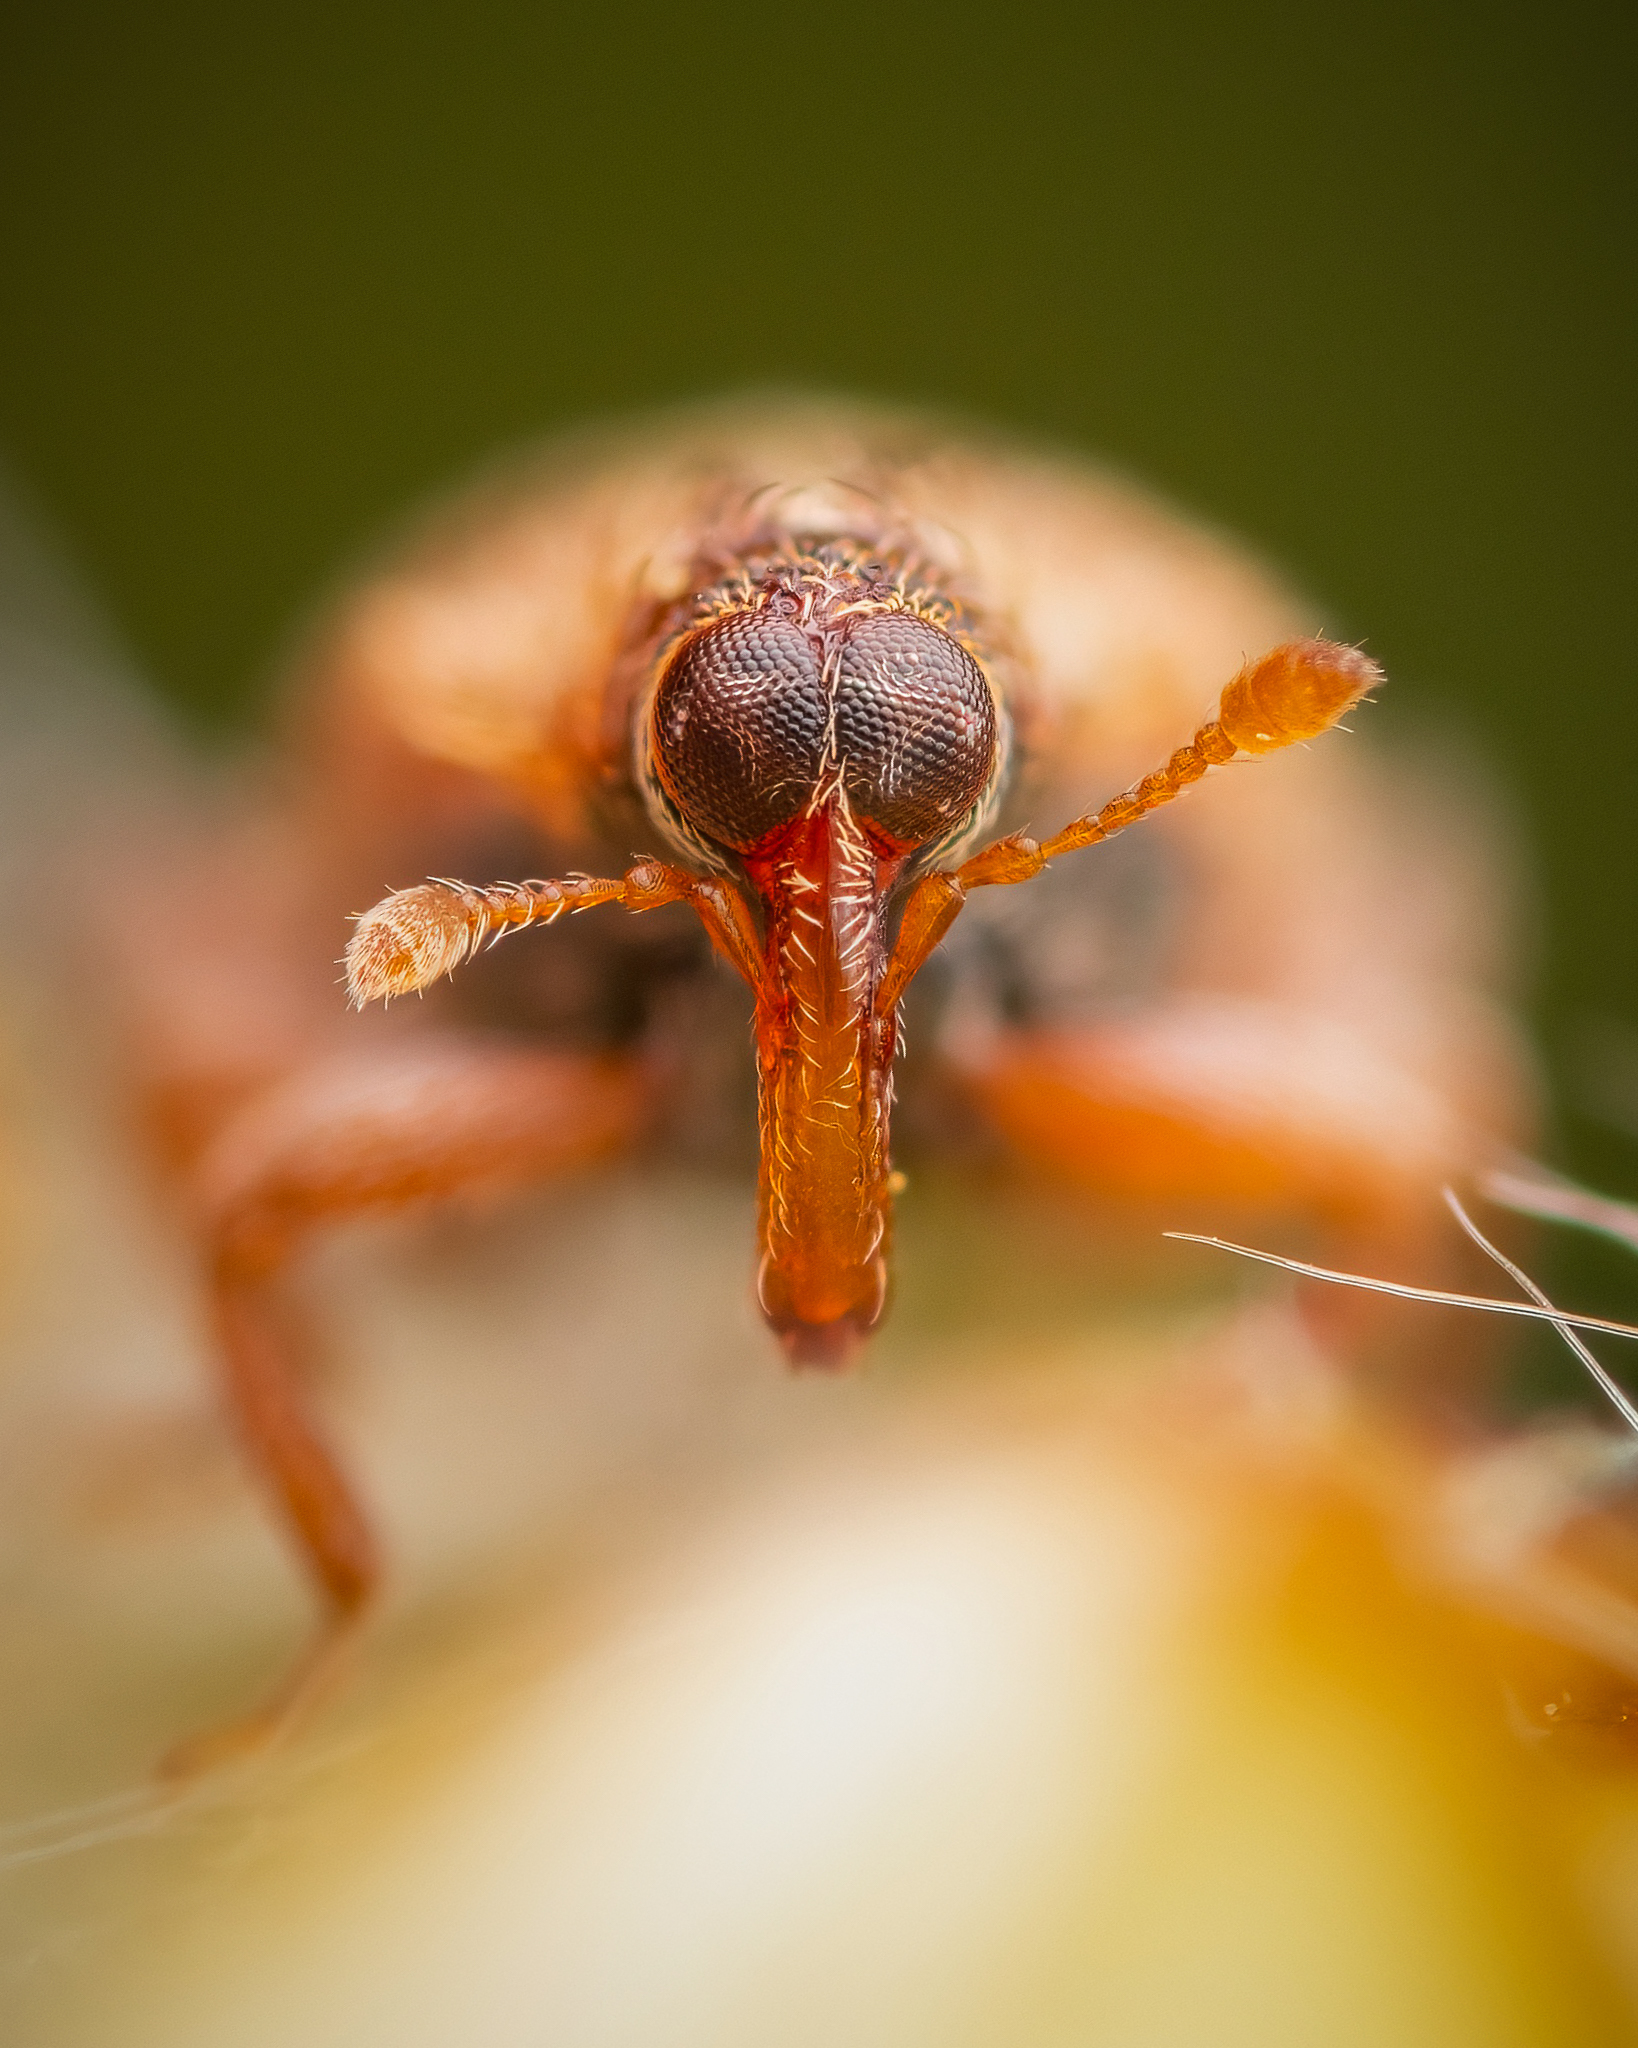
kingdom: Animalia
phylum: Arthropoda
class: Insecta
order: Coleoptera
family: Curculionidae
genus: Orchestes
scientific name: Orchestes quercus
